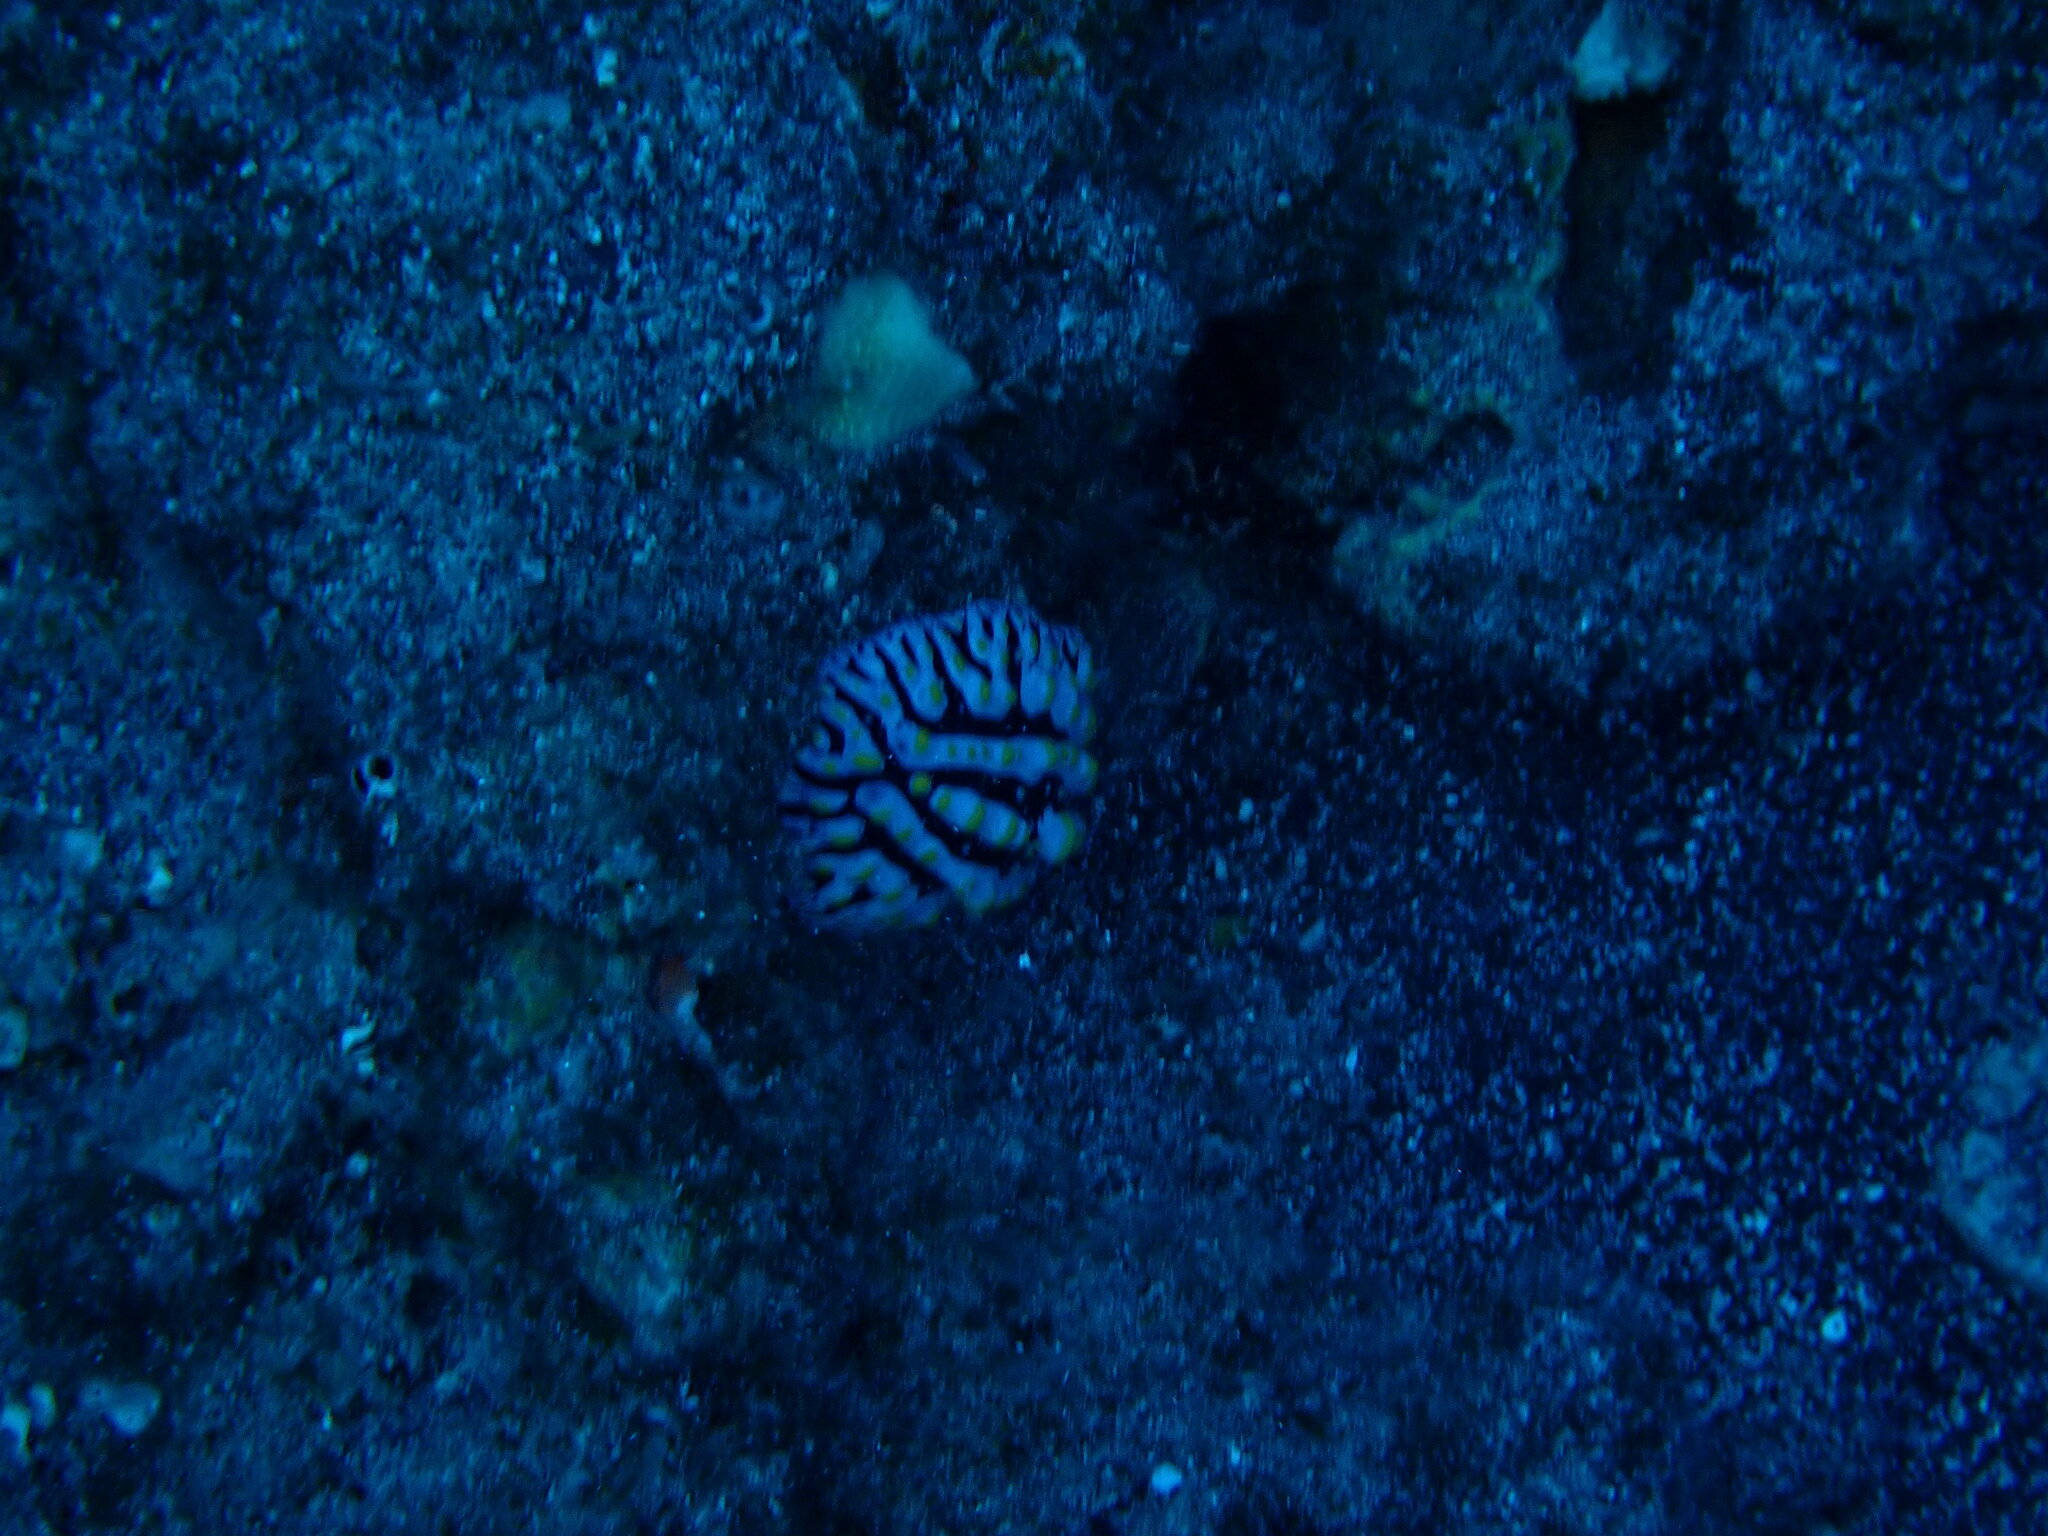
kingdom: Animalia
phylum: Mollusca
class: Gastropoda
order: Nudibranchia
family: Phyllidiidae
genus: Phyllidia
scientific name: Phyllidia varicosa
